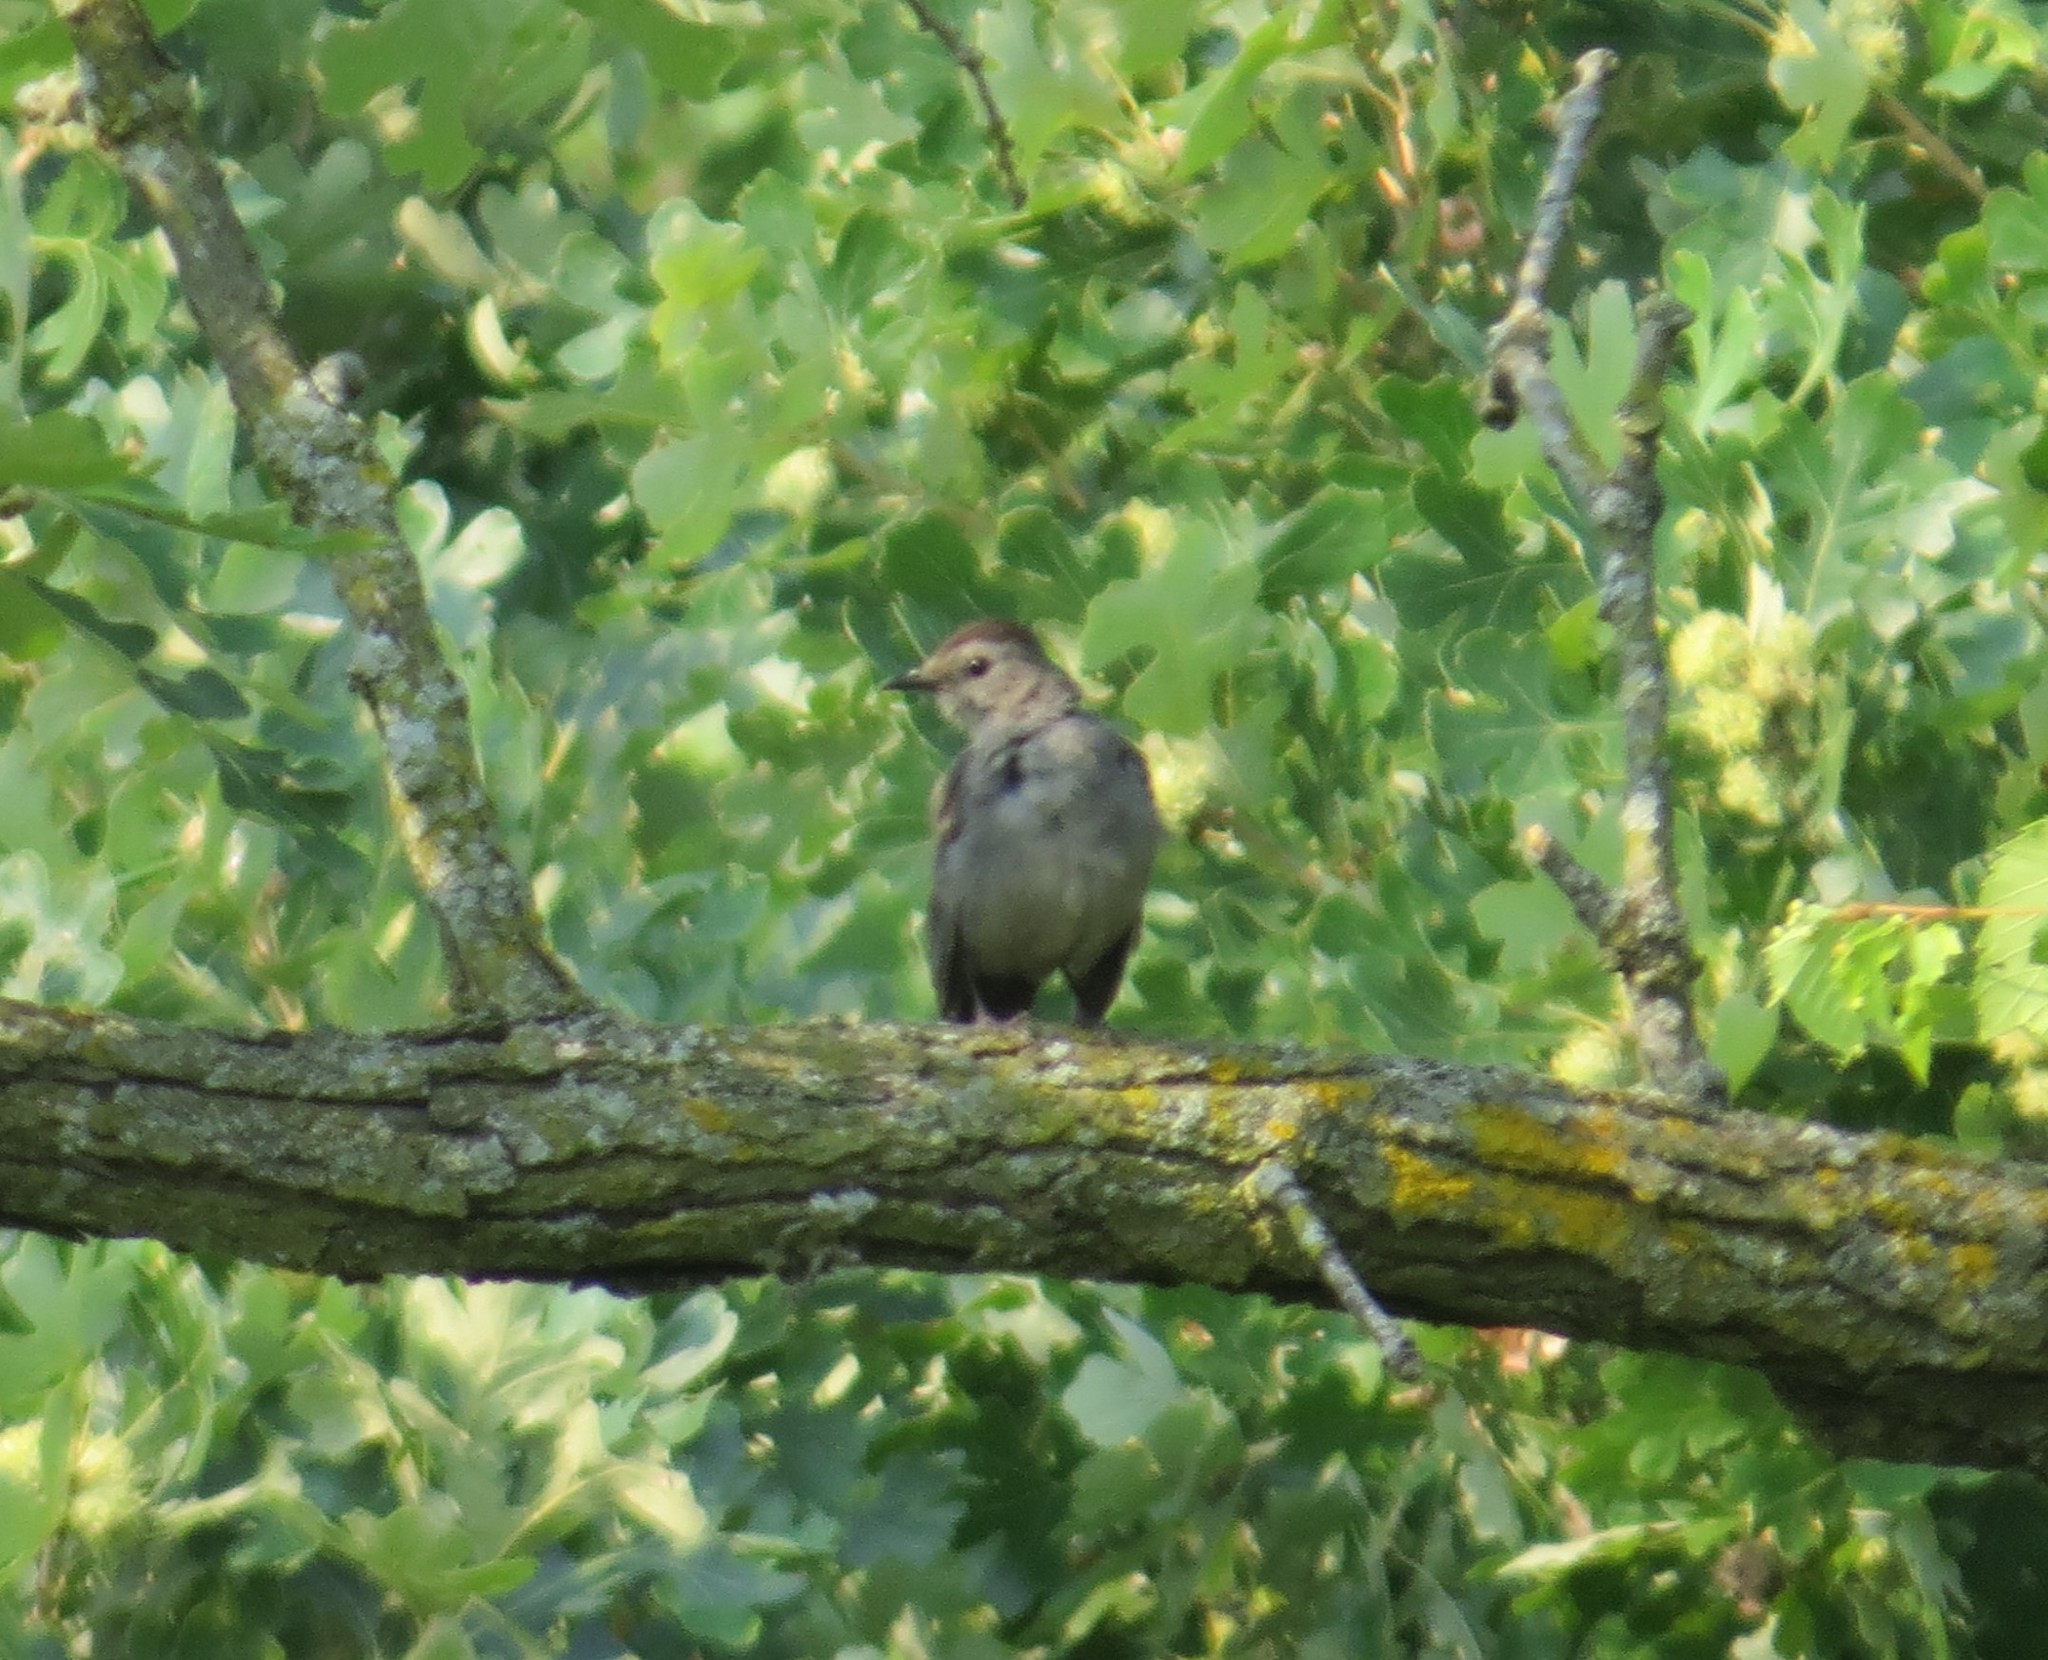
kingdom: Animalia
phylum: Chordata
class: Aves
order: Passeriformes
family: Mimidae
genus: Dumetella
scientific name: Dumetella carolinensis
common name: Gray catbird
